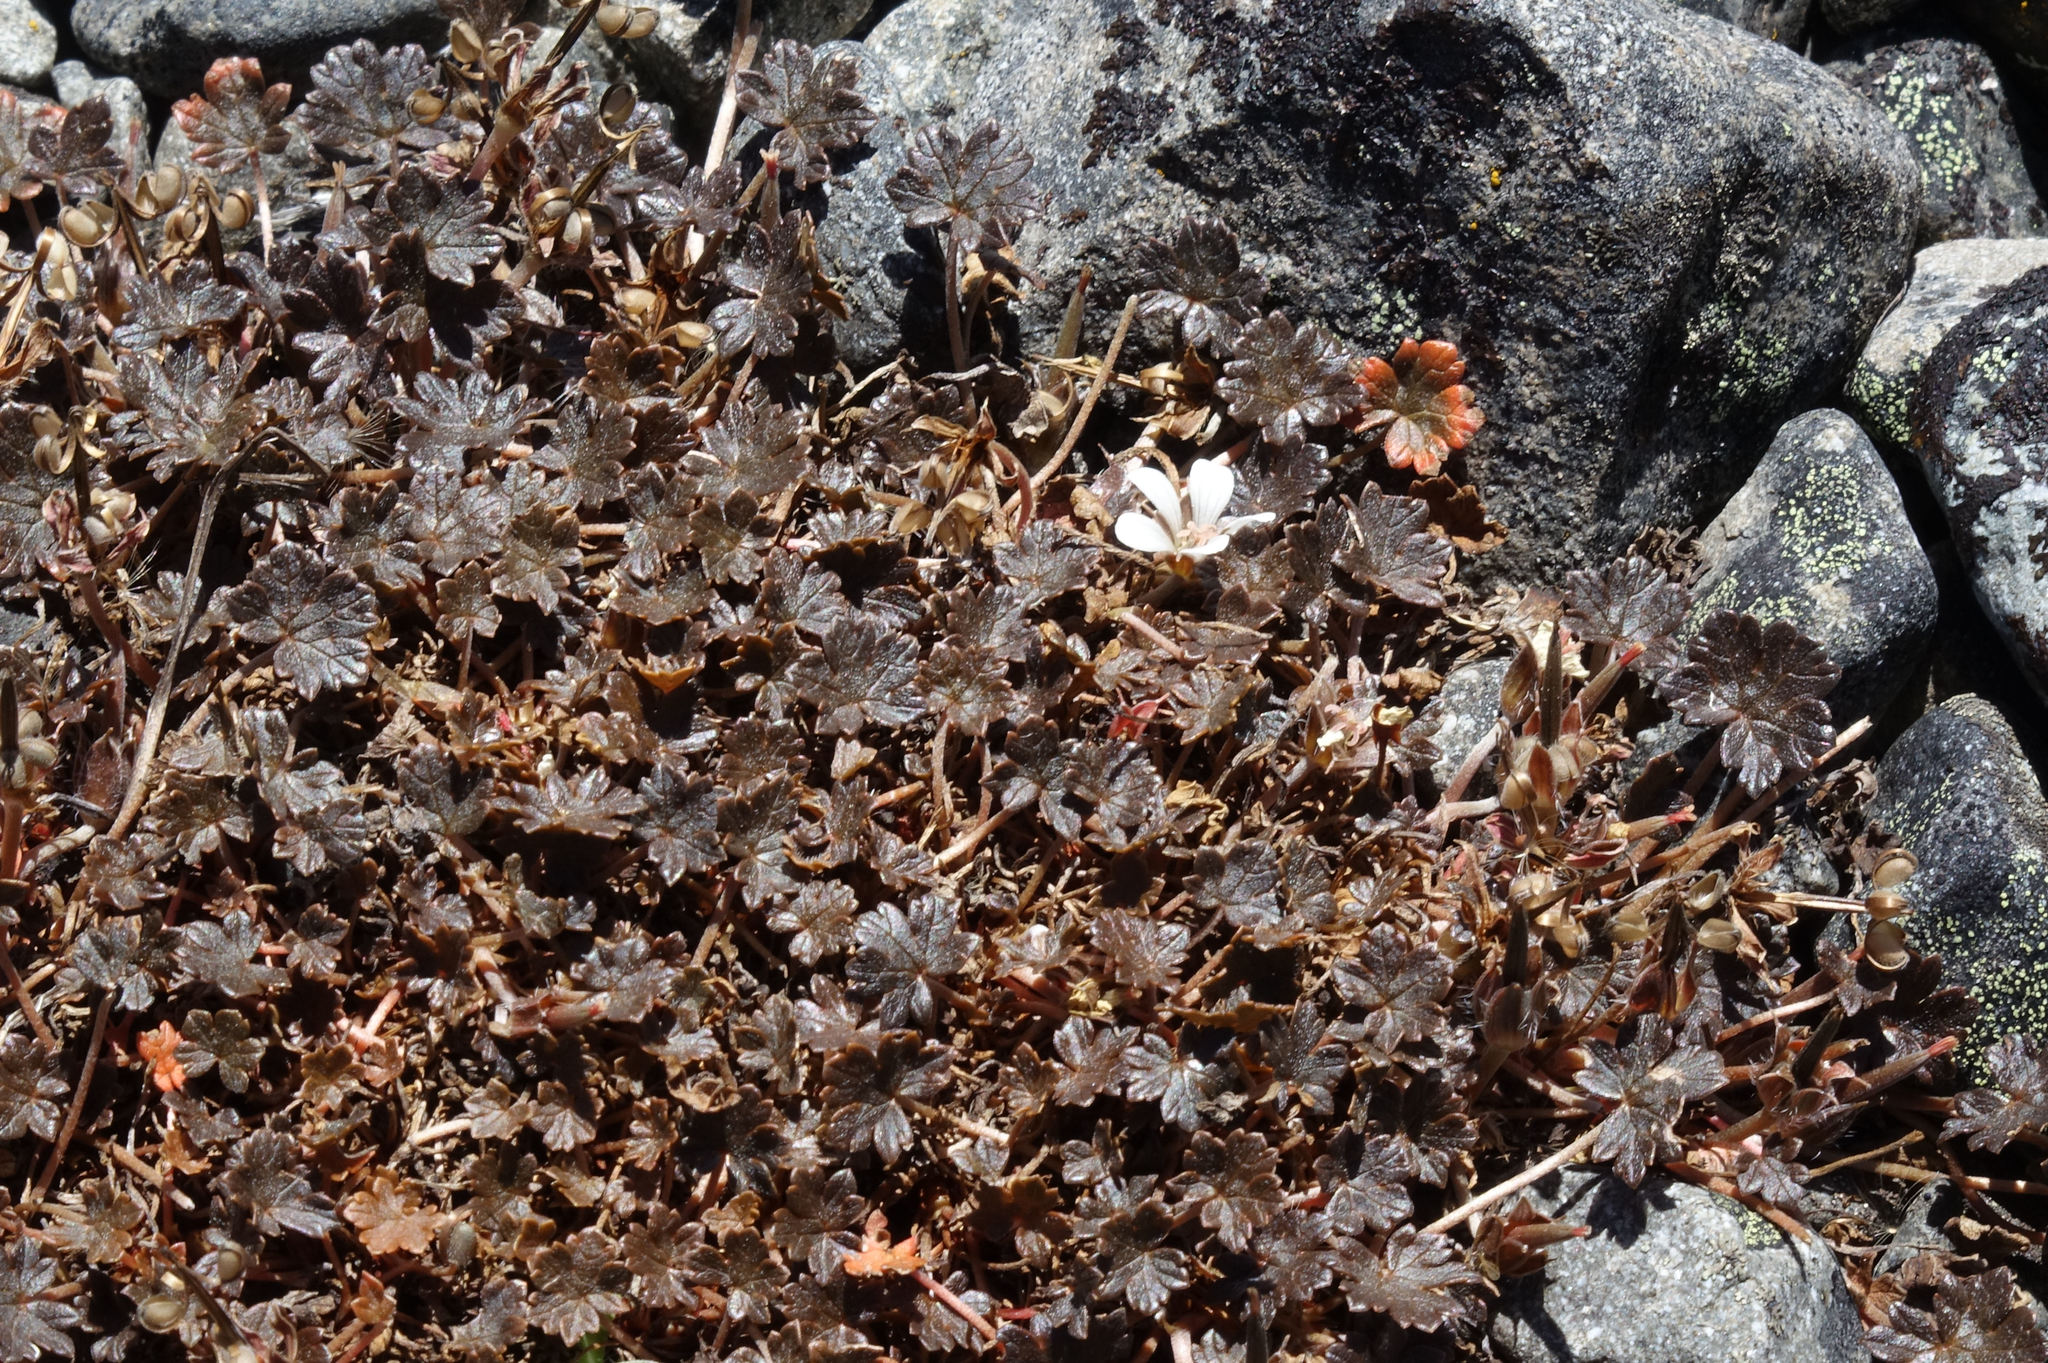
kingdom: Plantae
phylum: Tracheophyta
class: Magnoliopsida
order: Geraniales
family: Geraniaceae
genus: Geranium
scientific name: Geranium brevicaule
